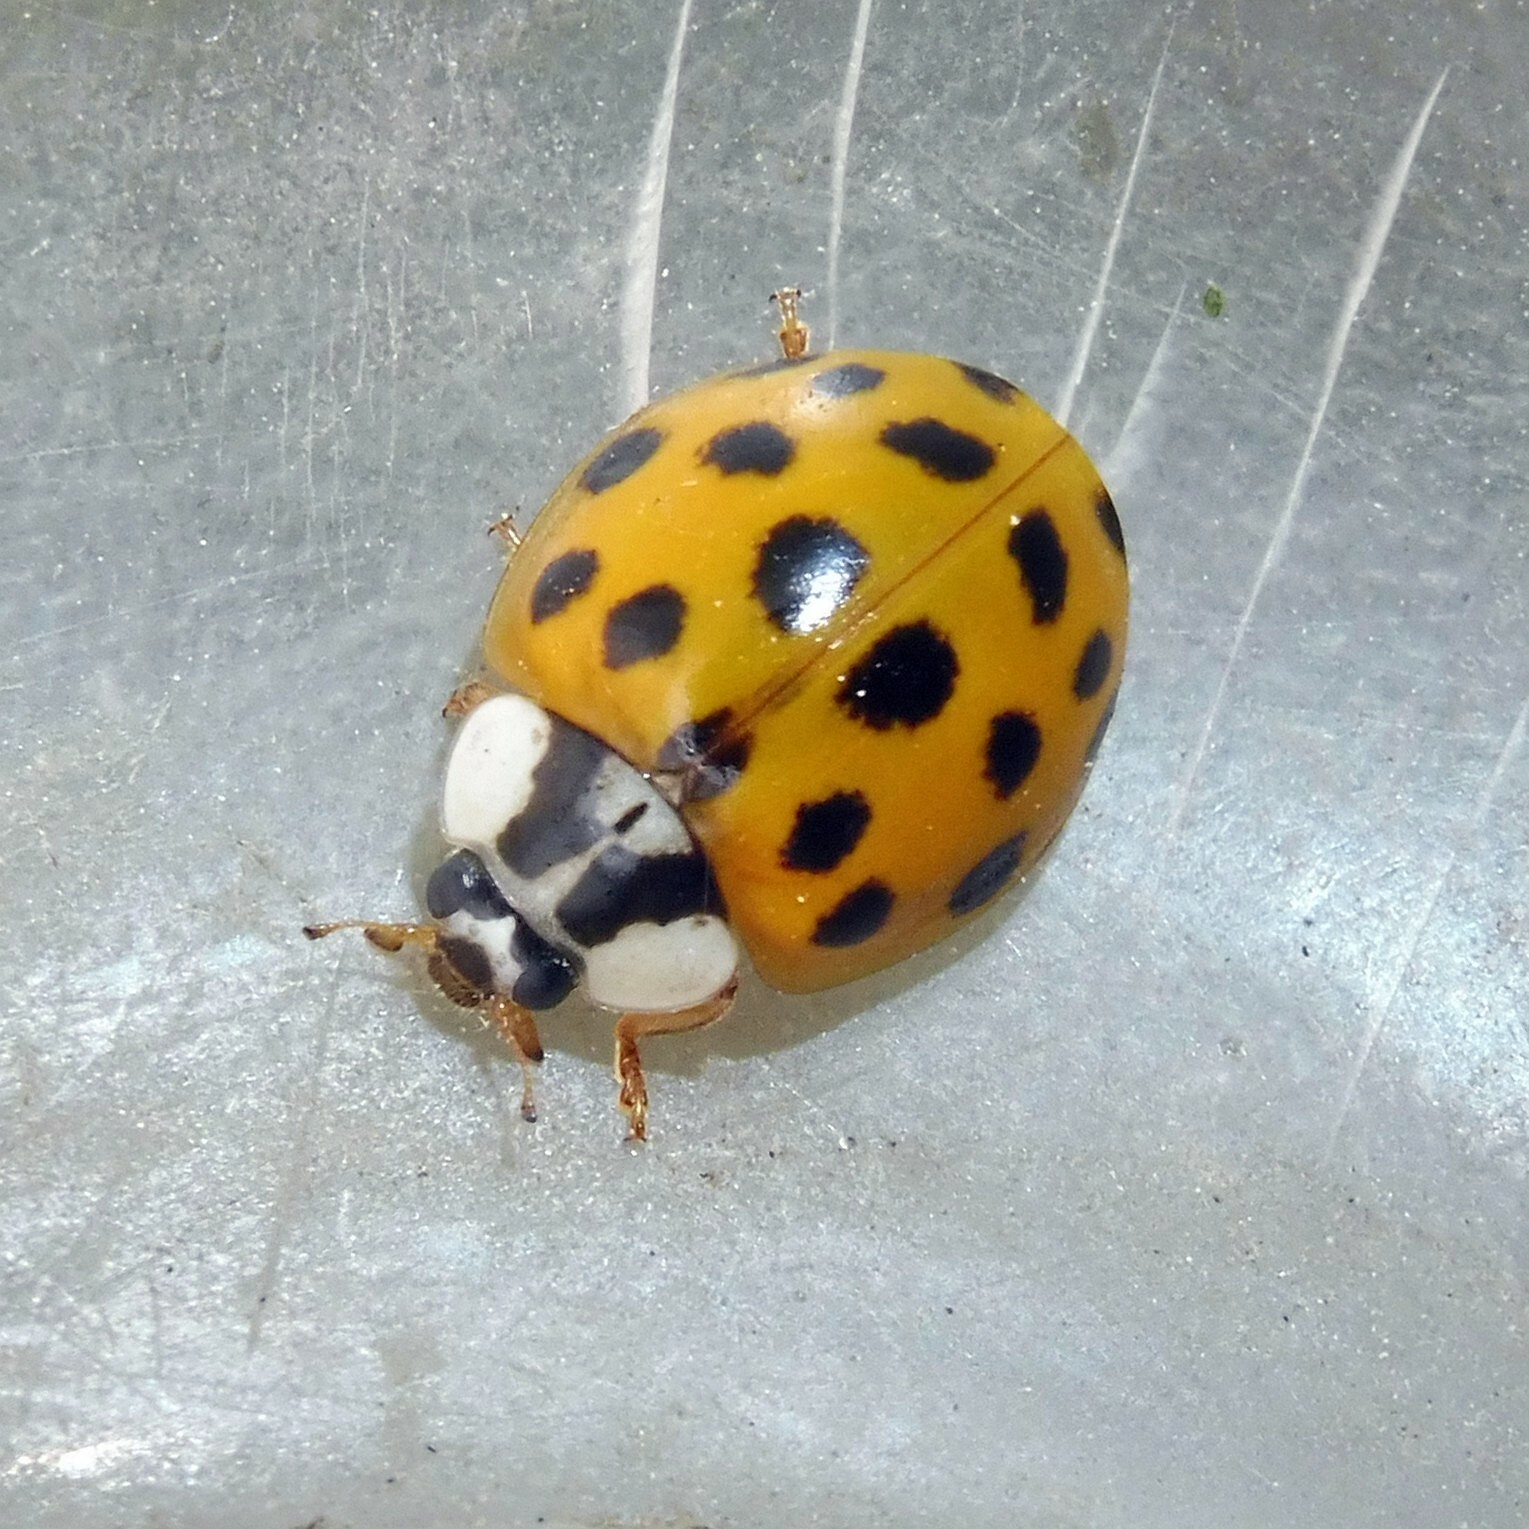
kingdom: Animalia
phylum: Arthropoda
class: Insecta
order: Coleoptera
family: Coccinellidae
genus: Harmonia
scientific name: Harmonia axyridis
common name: Harlequin ladybird
